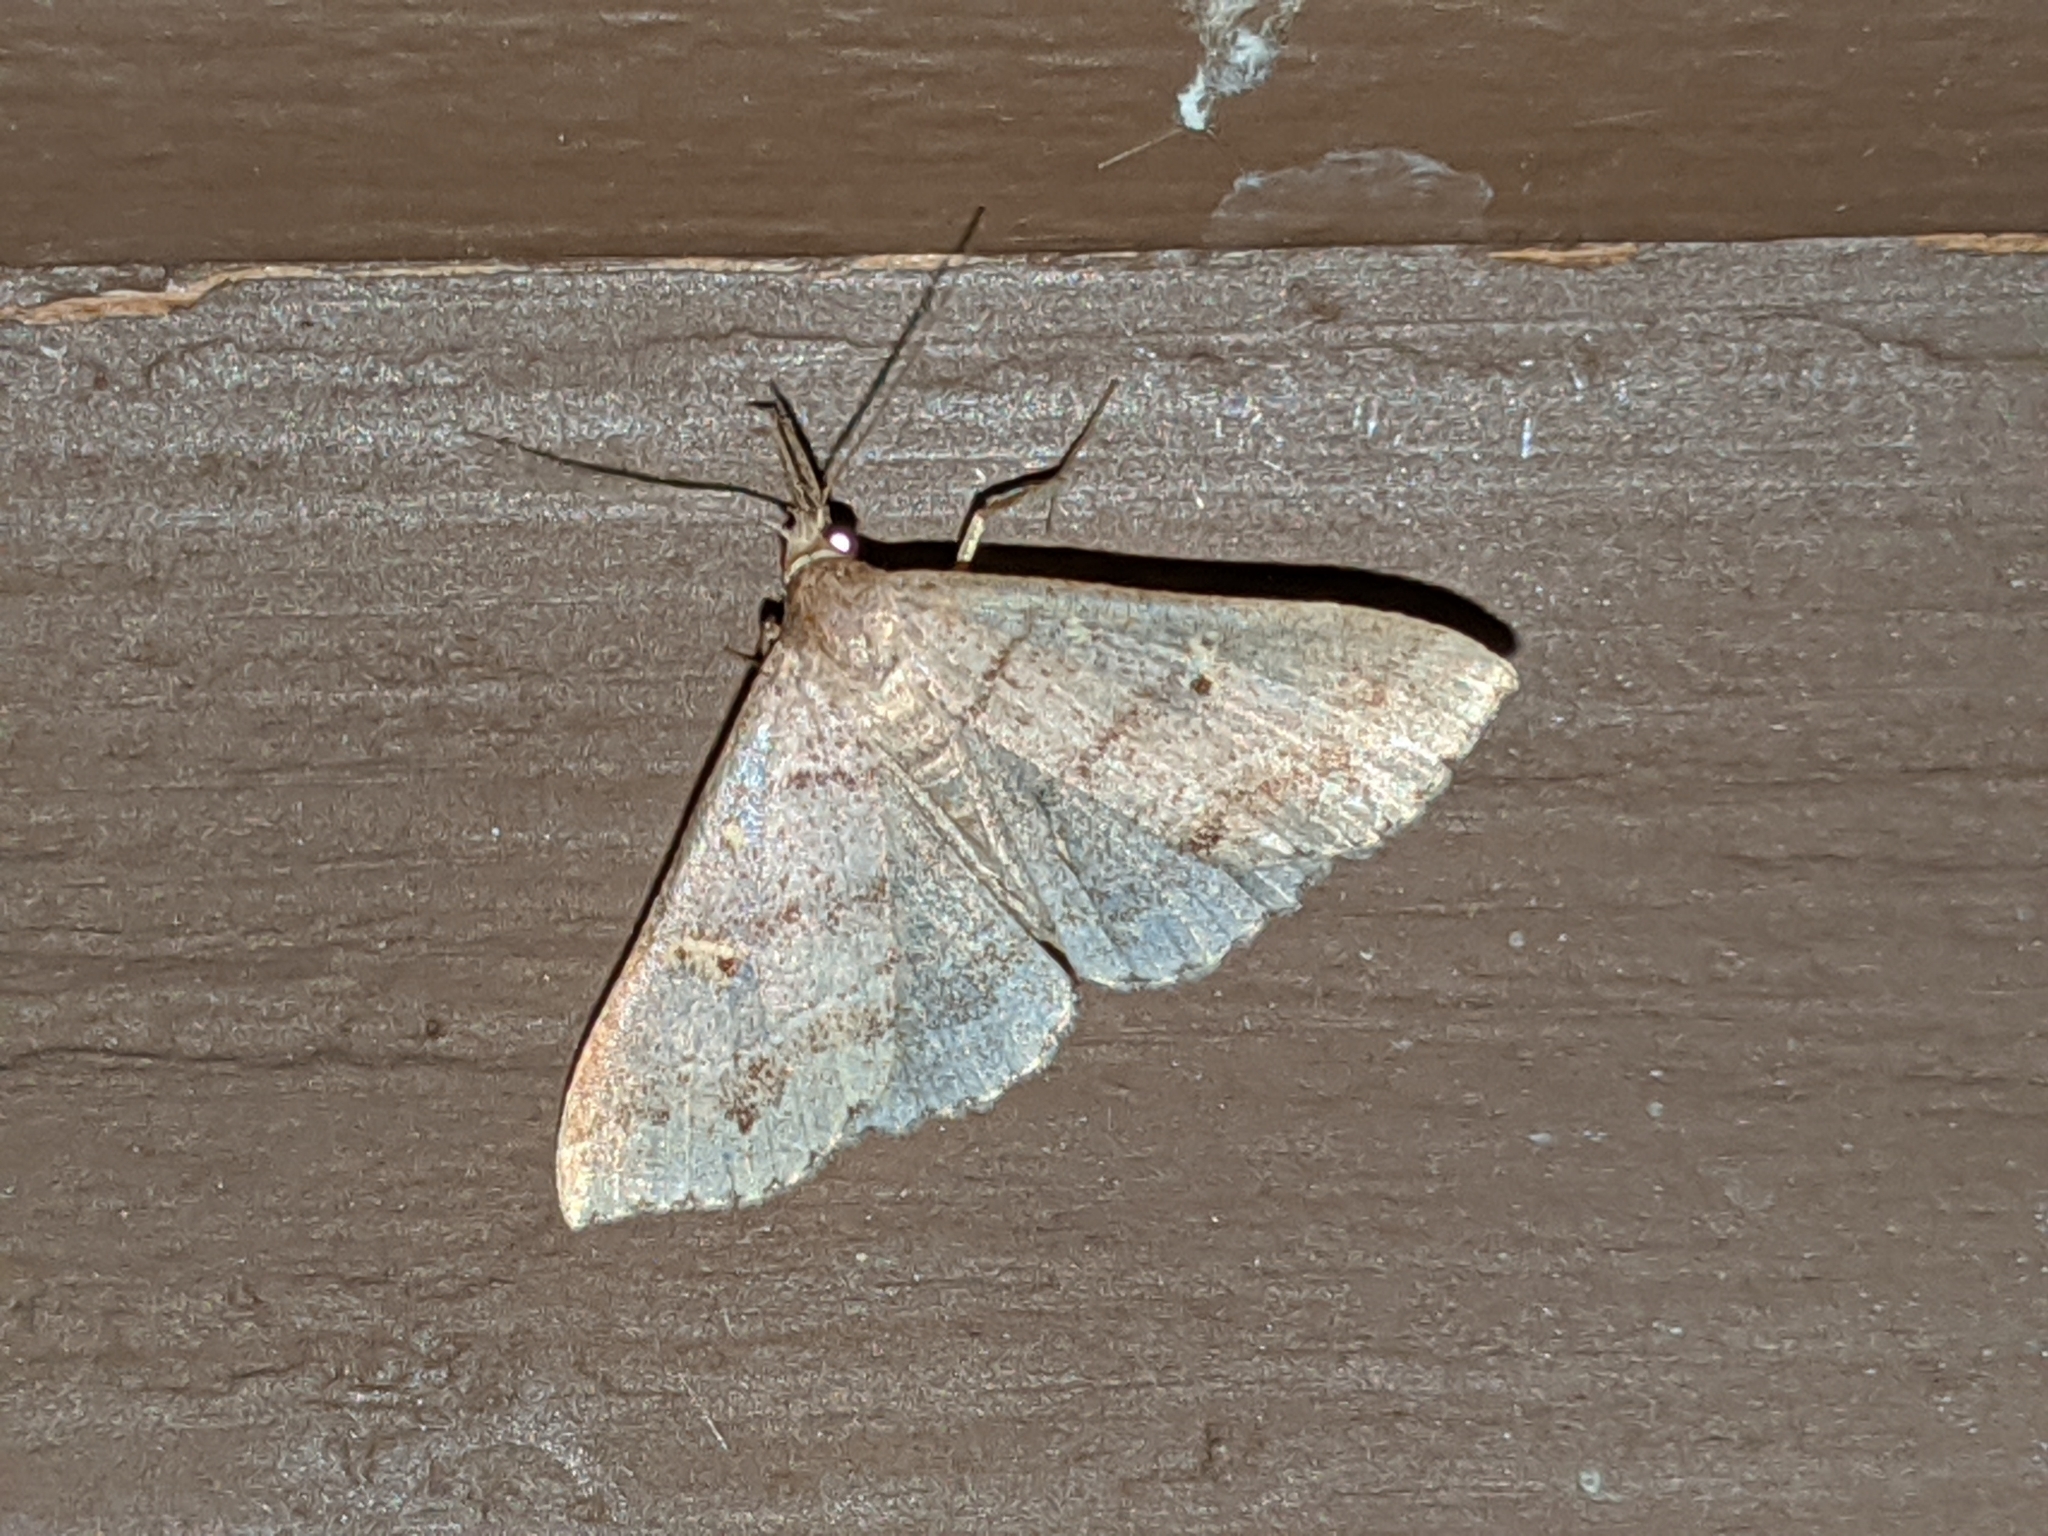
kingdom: Animalia
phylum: Arthropoda
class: Insecta
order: Lepidoptera
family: Erebidae
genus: Renia
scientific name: Renia flavipunctalis
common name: Yellow-spotted renia moth
